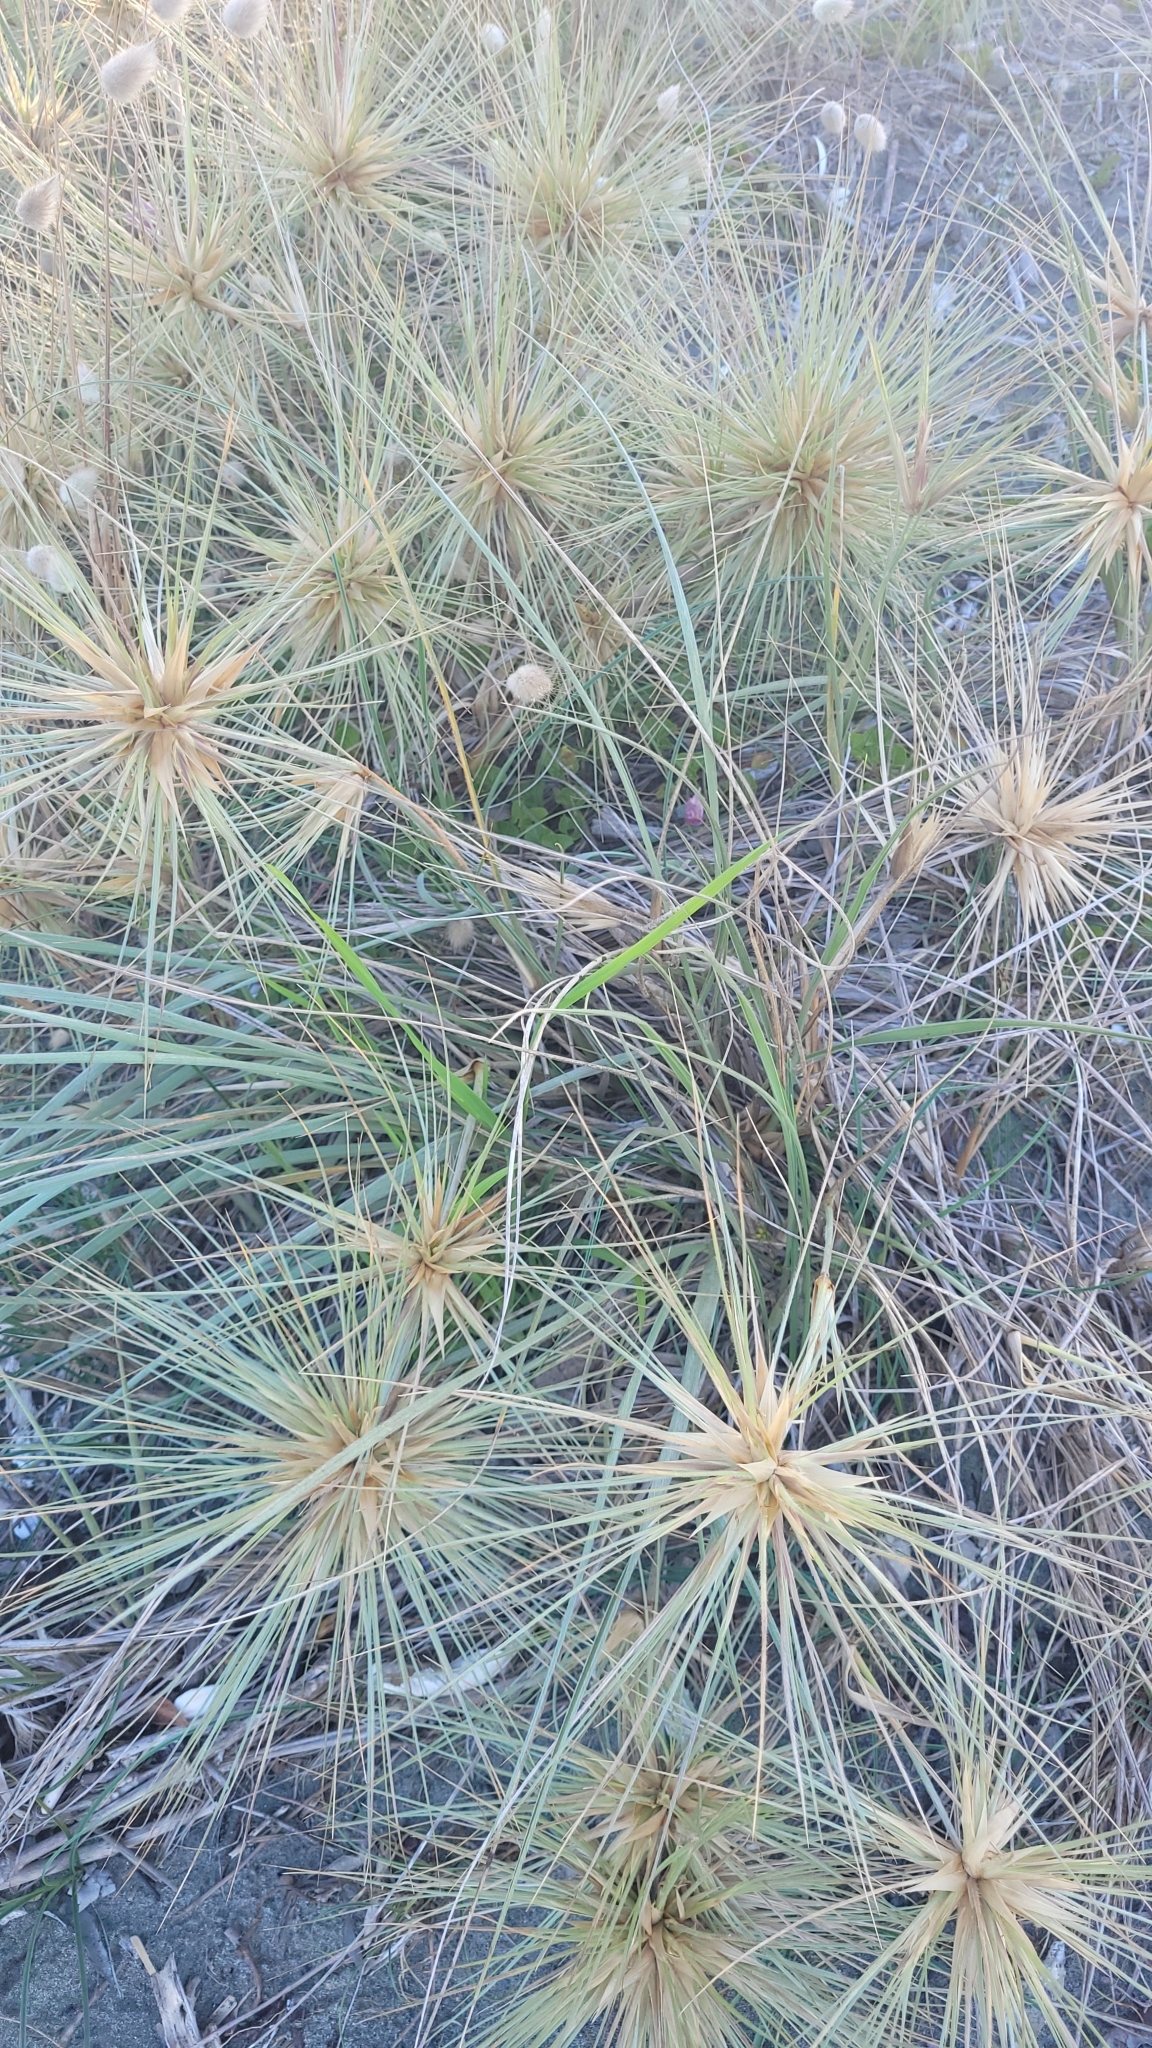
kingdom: Plantae
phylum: Tracheophyta
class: Liliopsida
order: Poales
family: Poaceae
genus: Spinifex
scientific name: Spinifex sericeus
